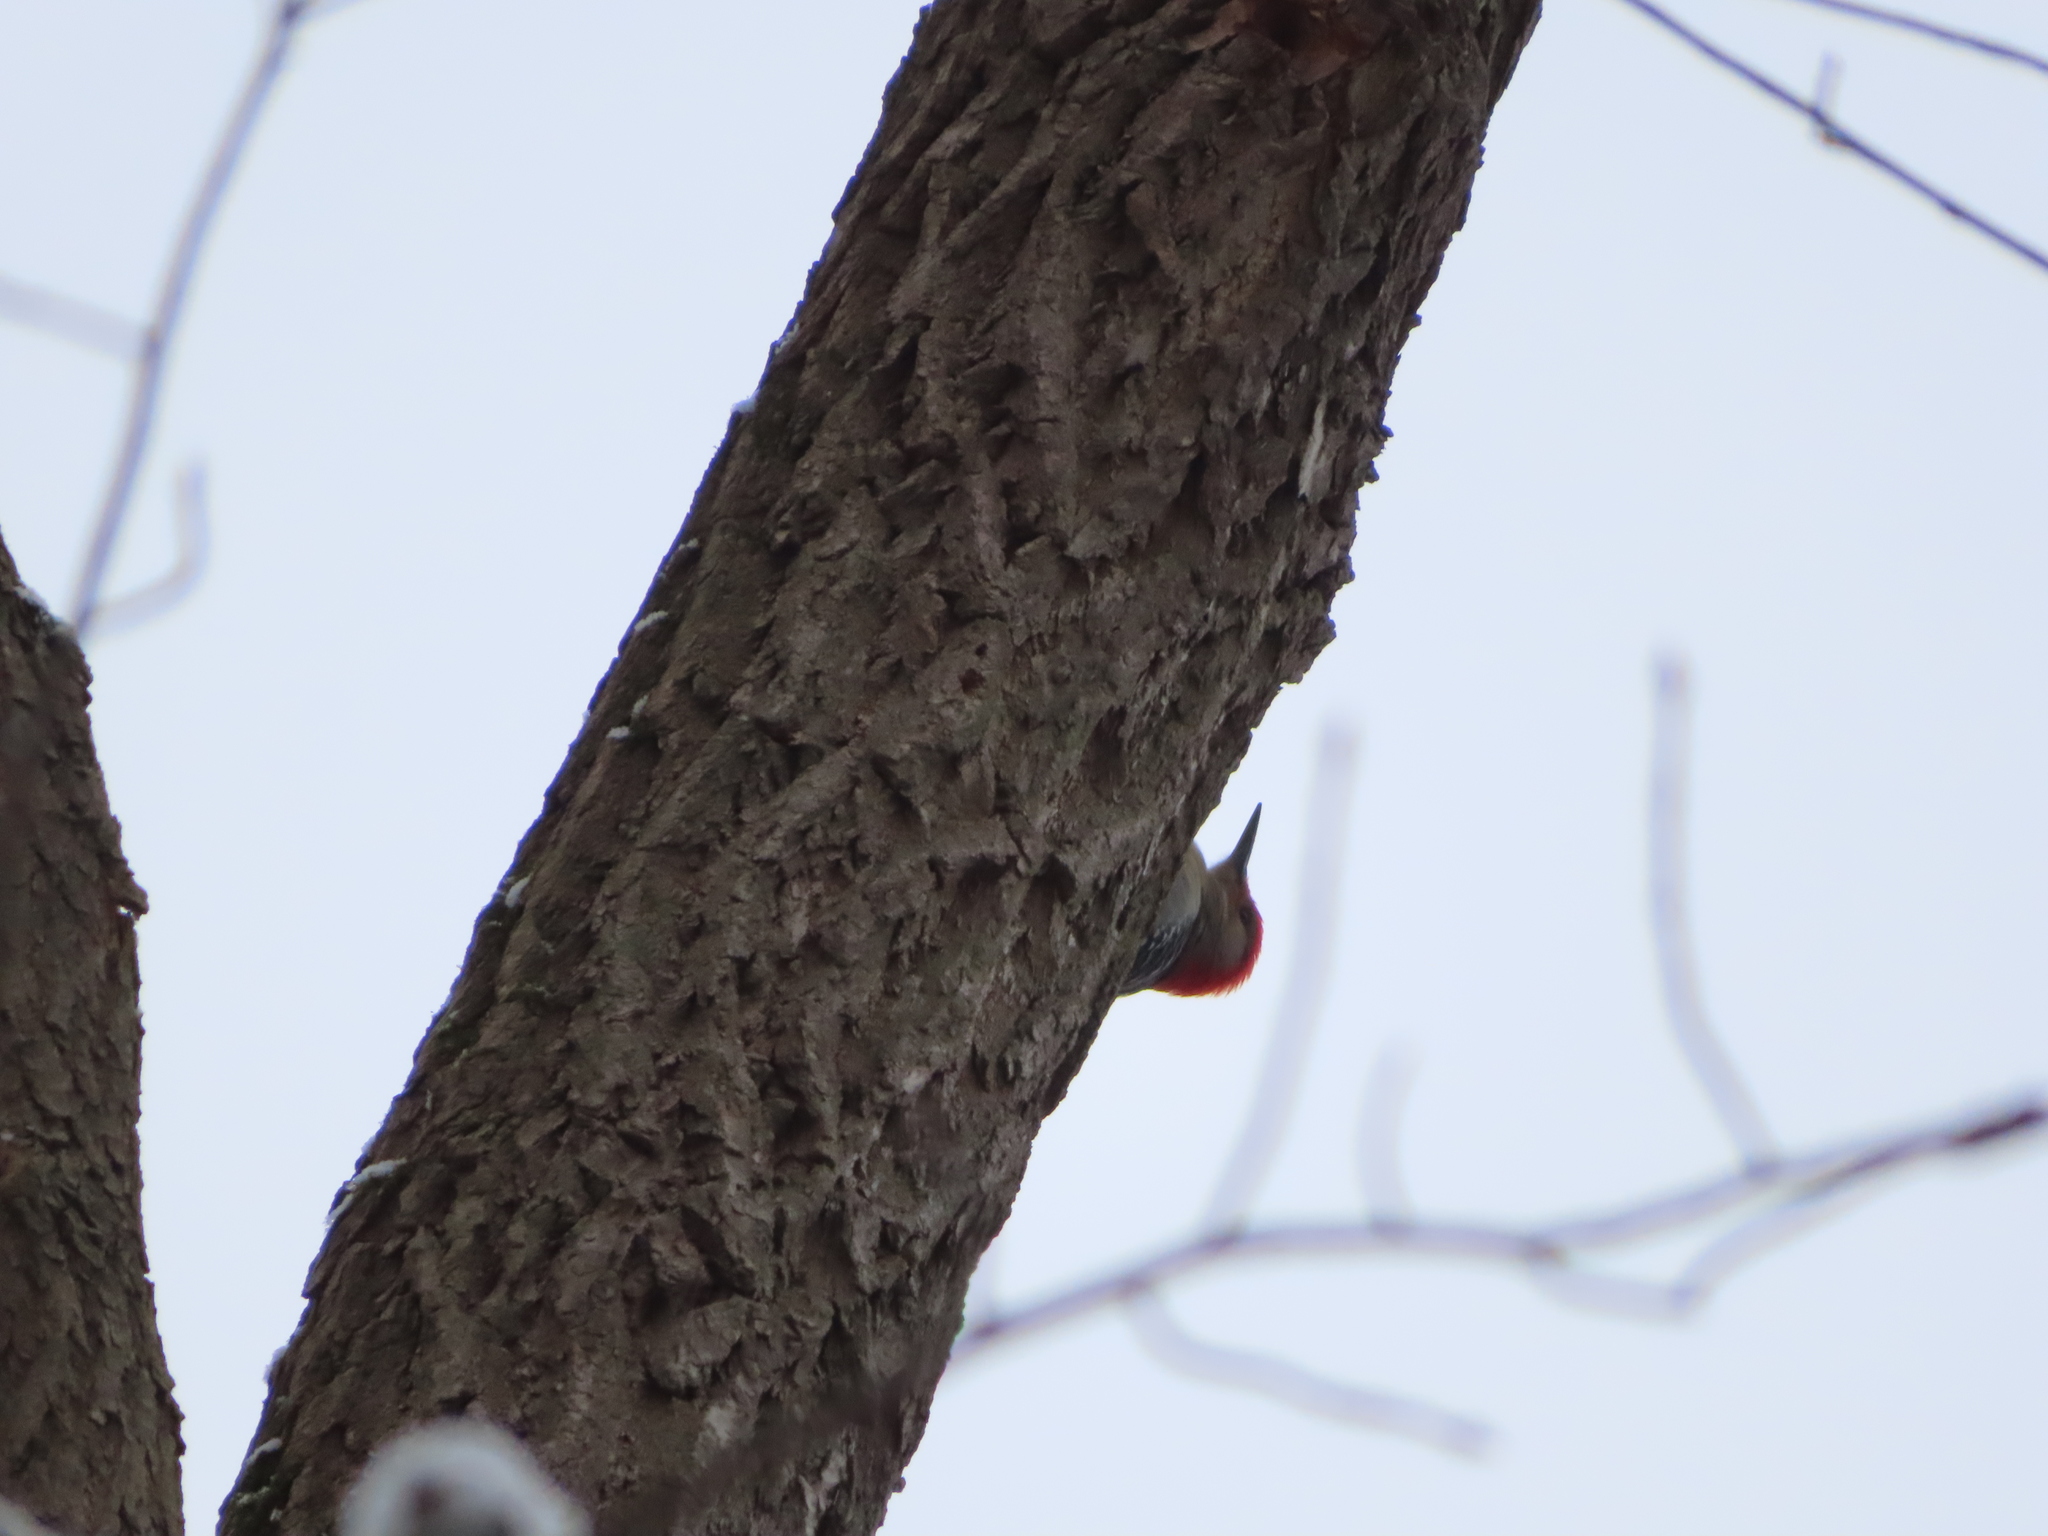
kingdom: Animalia
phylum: Chordata
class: Aves
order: Piciformes
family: Picidae
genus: Melanerpes
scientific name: Melanerpes carolinus
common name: Red-bellied woodpecker
